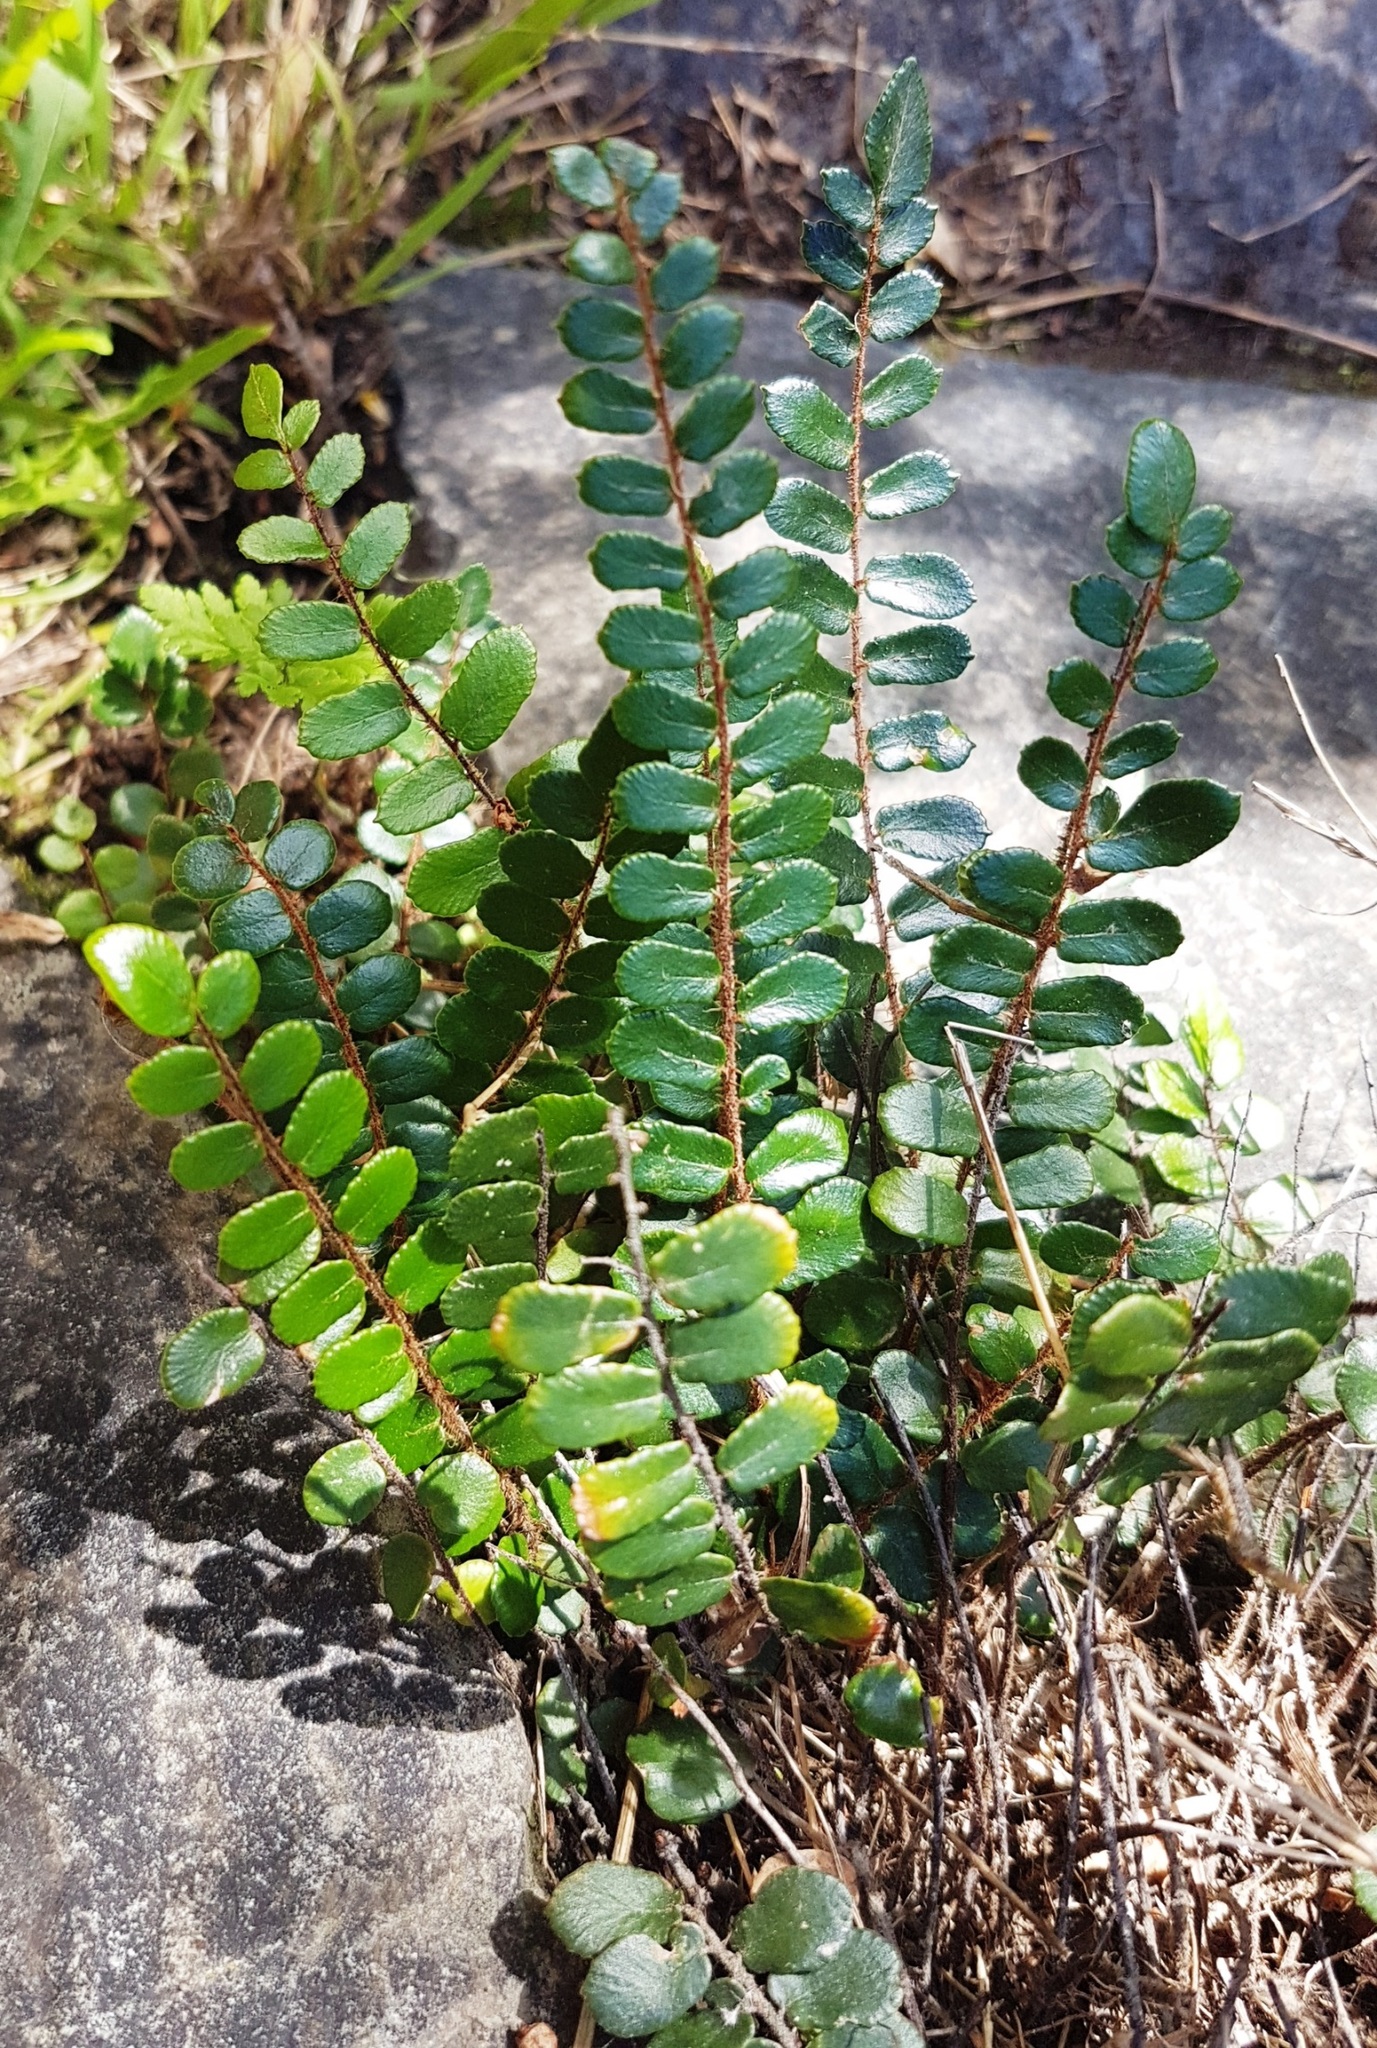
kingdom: Plantae
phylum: Tracheophyta
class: Polypodiopsida
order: Polypodiales
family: Pteridaceae
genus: Pellaea
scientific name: Pellaea rotundifolia
